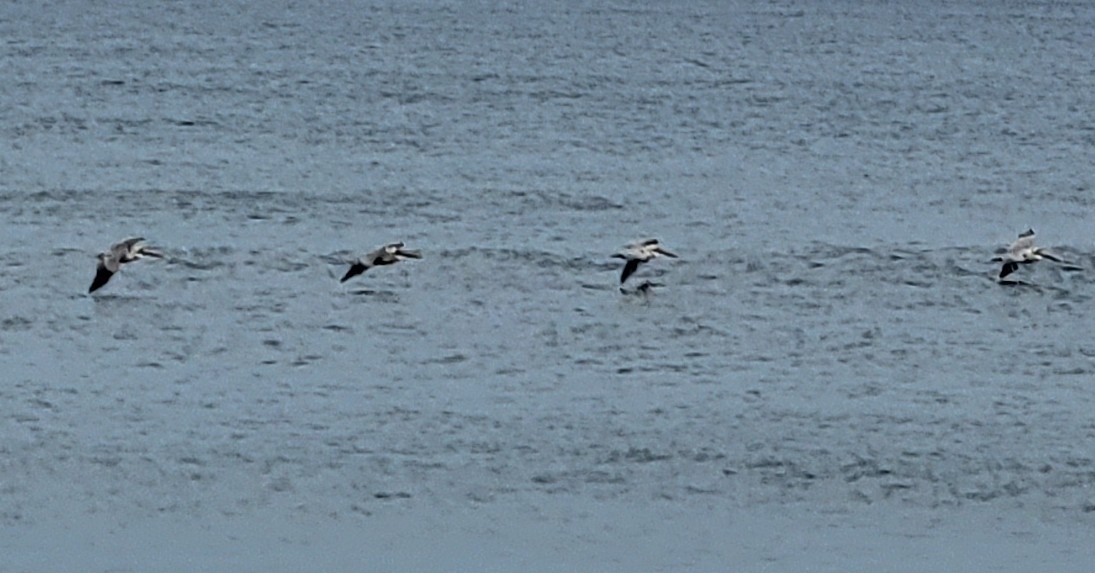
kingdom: Animalia
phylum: Chordata
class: Aves
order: Pelecaniformes
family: Pelecanidae
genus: Pelecanus
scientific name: Pelecanus occidentalis
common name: Brown pelican
